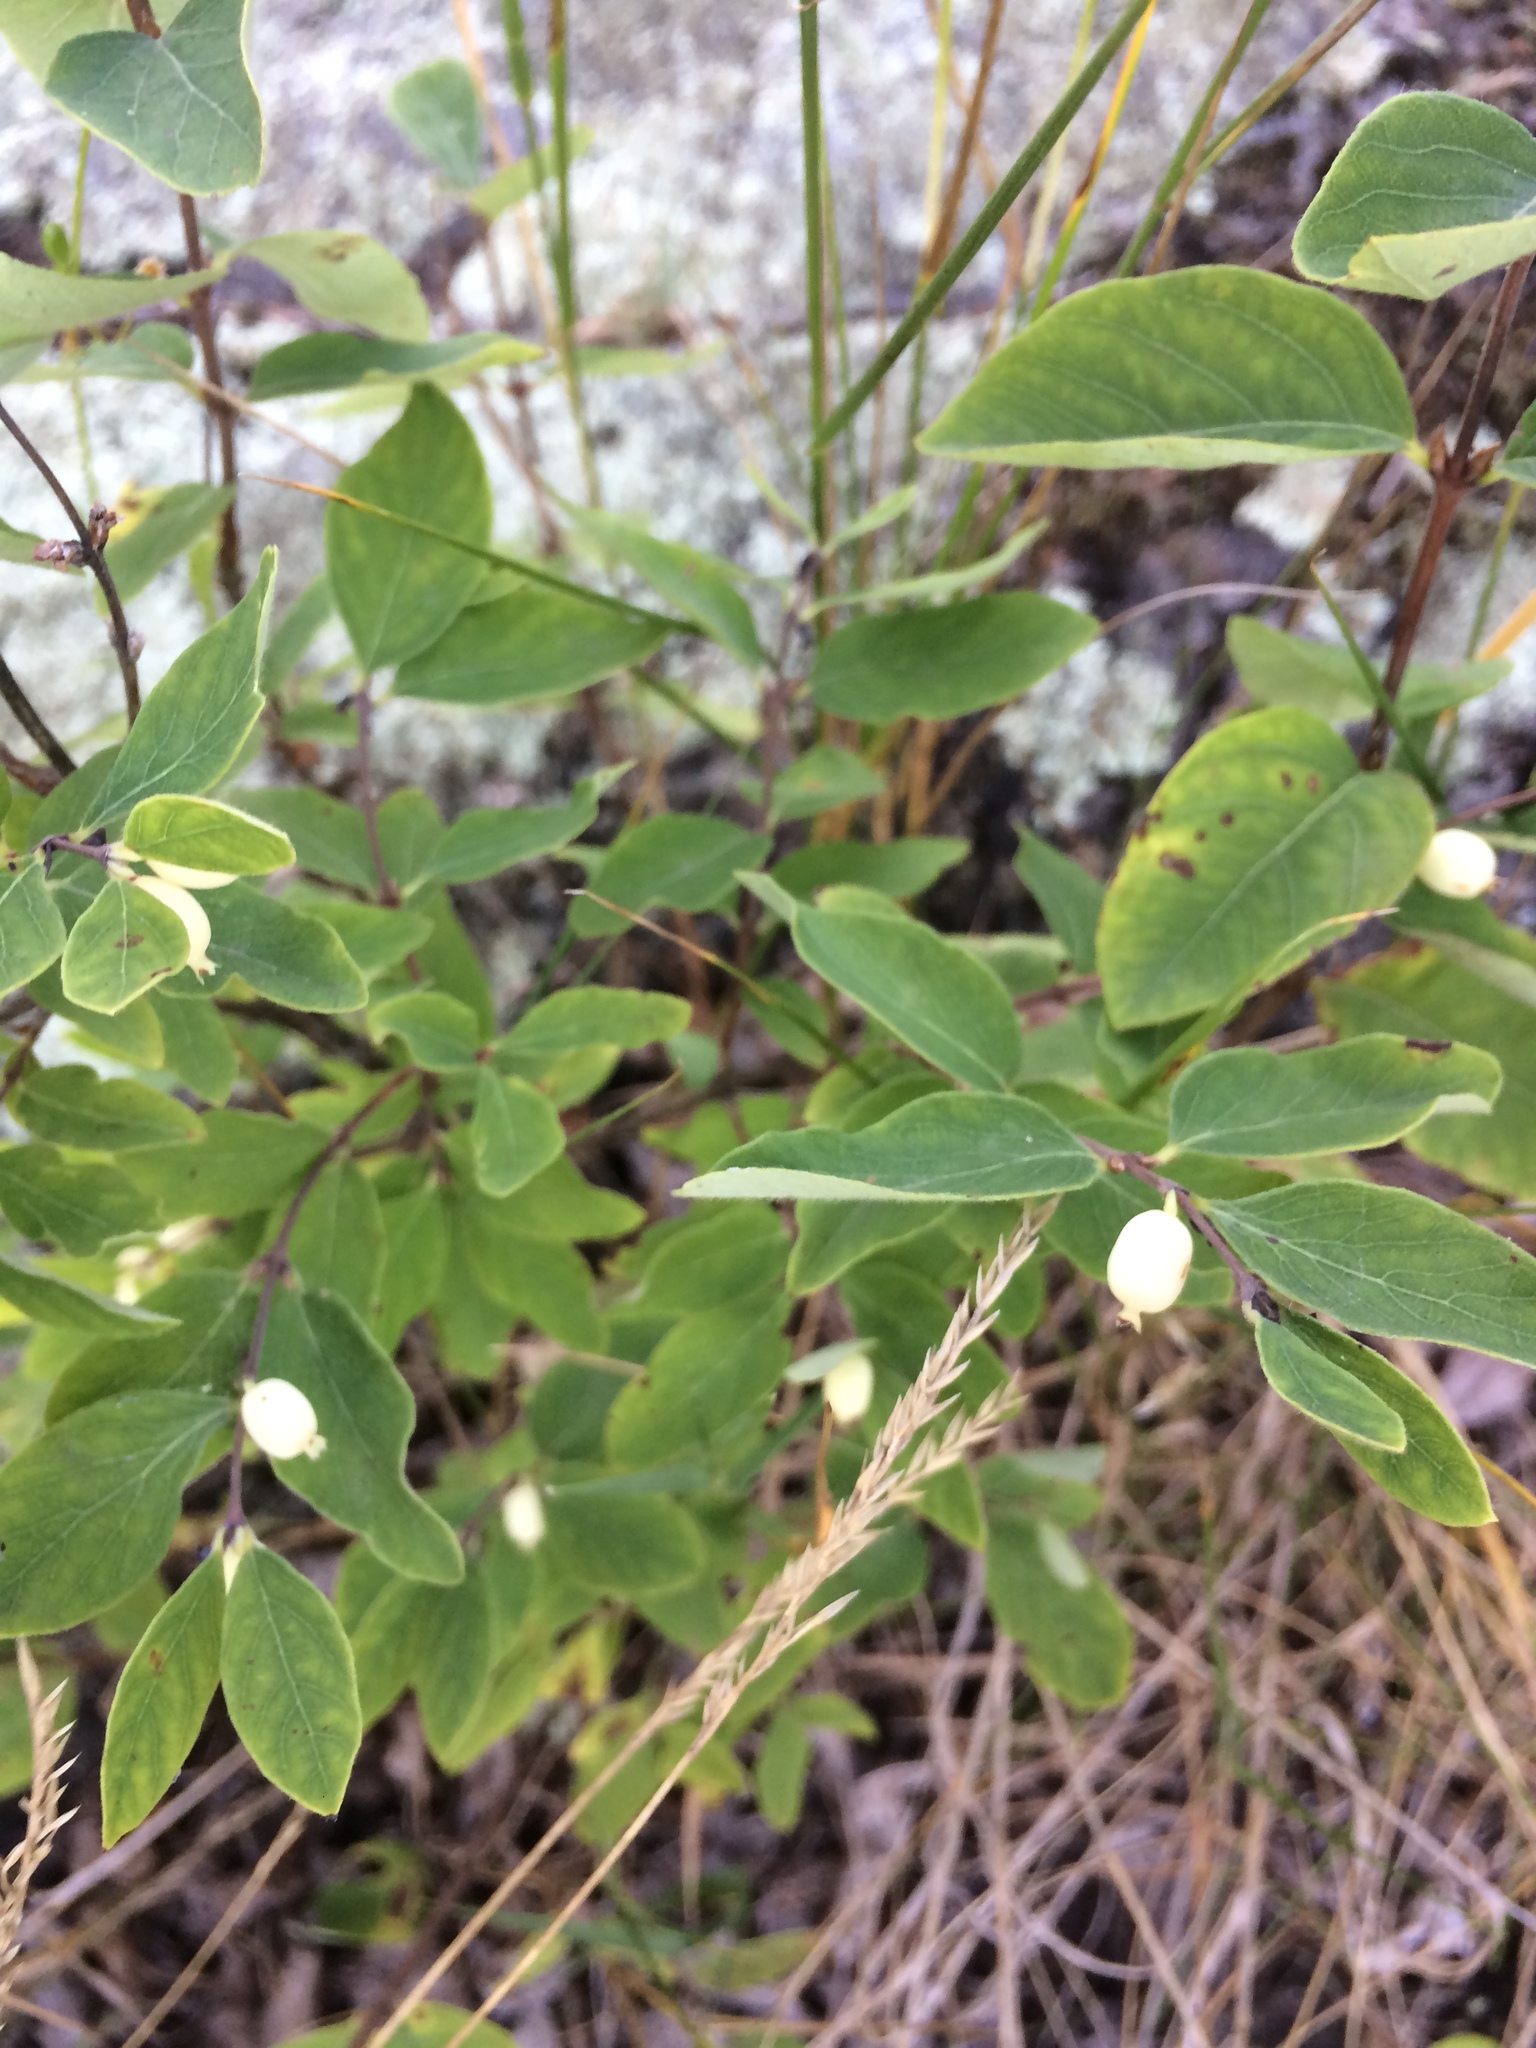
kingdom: Plantae
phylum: Tracheophyta
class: Magnoliopsida
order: Dipsacales
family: Caprifoliaceae
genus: Symphoricarpos
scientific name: Symphoricarpos albus
